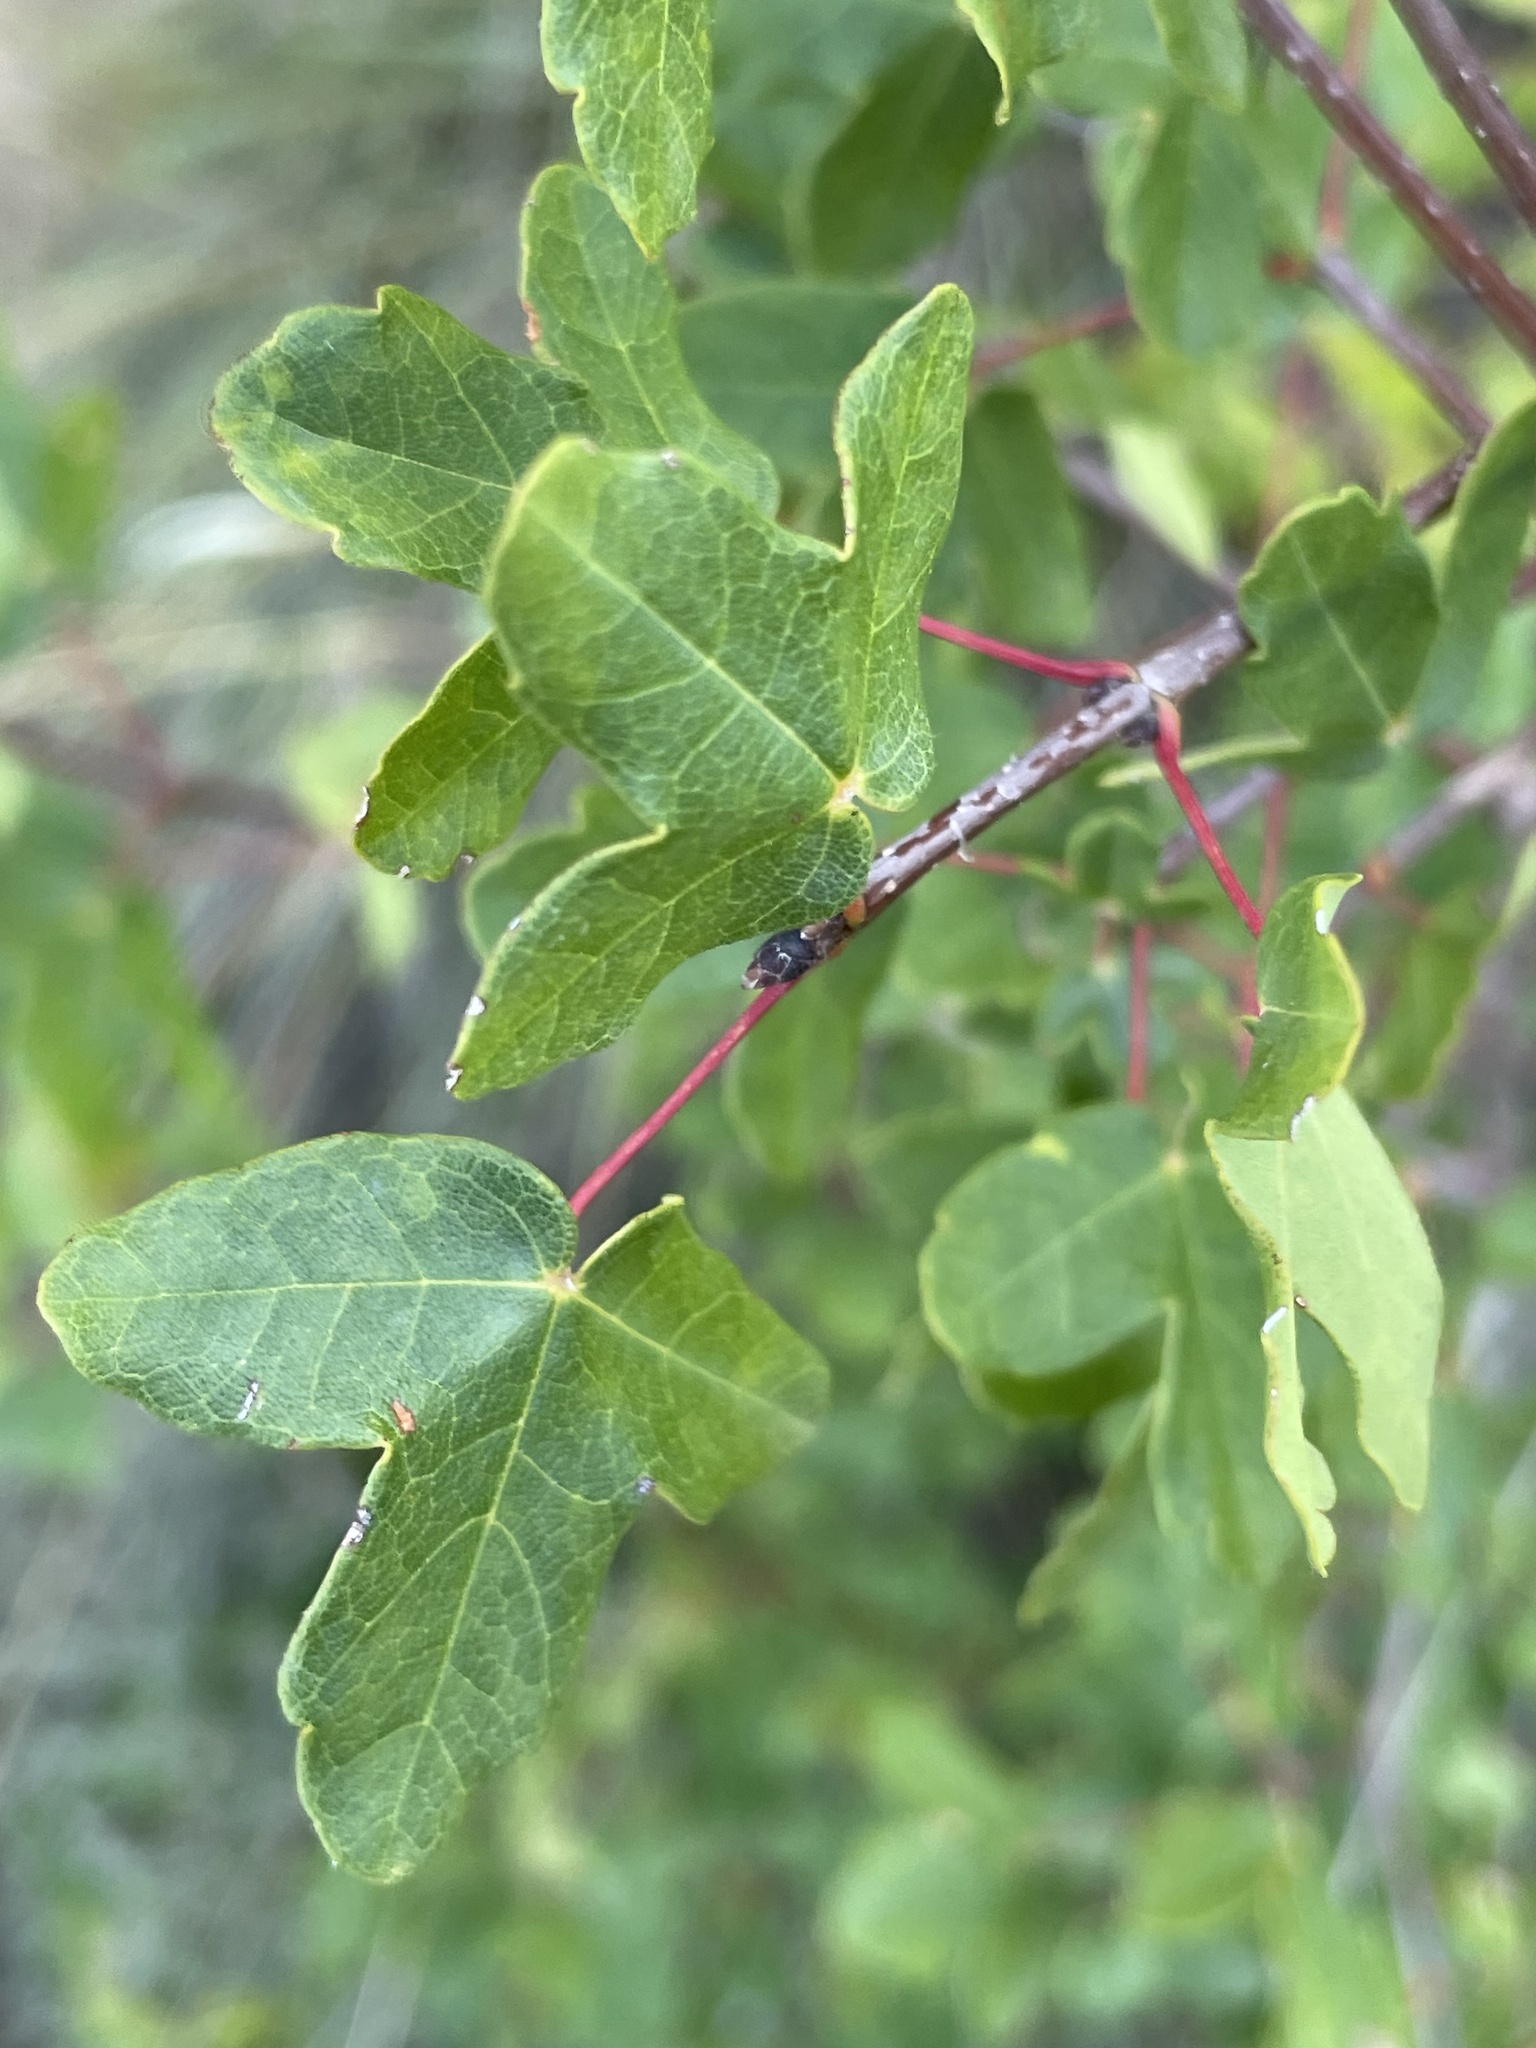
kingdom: Plantae
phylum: Tracheophyta
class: Magnoliopsida
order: Sapindales
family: Sapindaceae
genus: Acer
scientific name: Acer monspessulanum
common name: Montpellier maple
